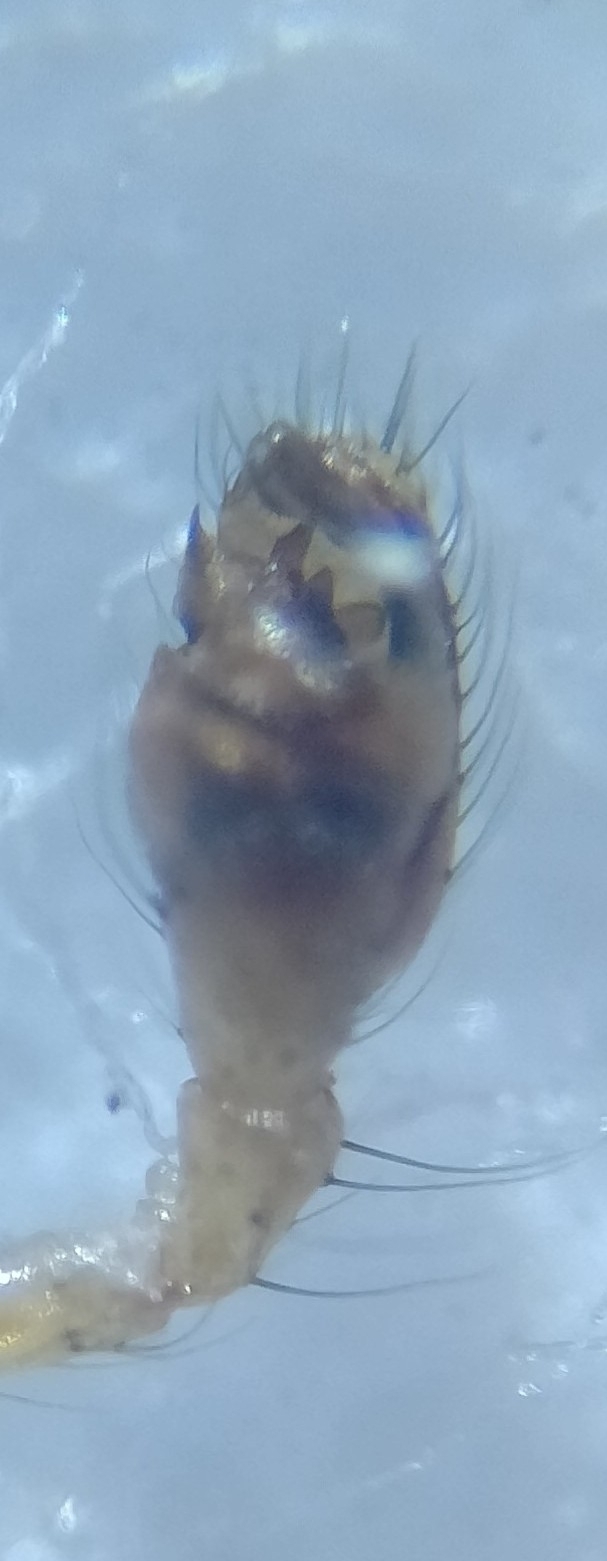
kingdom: Animalia
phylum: Arthropoda
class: Arachnida
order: Araneae
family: Theridiidae
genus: Phylloneta
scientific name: Phylloneta impressa
